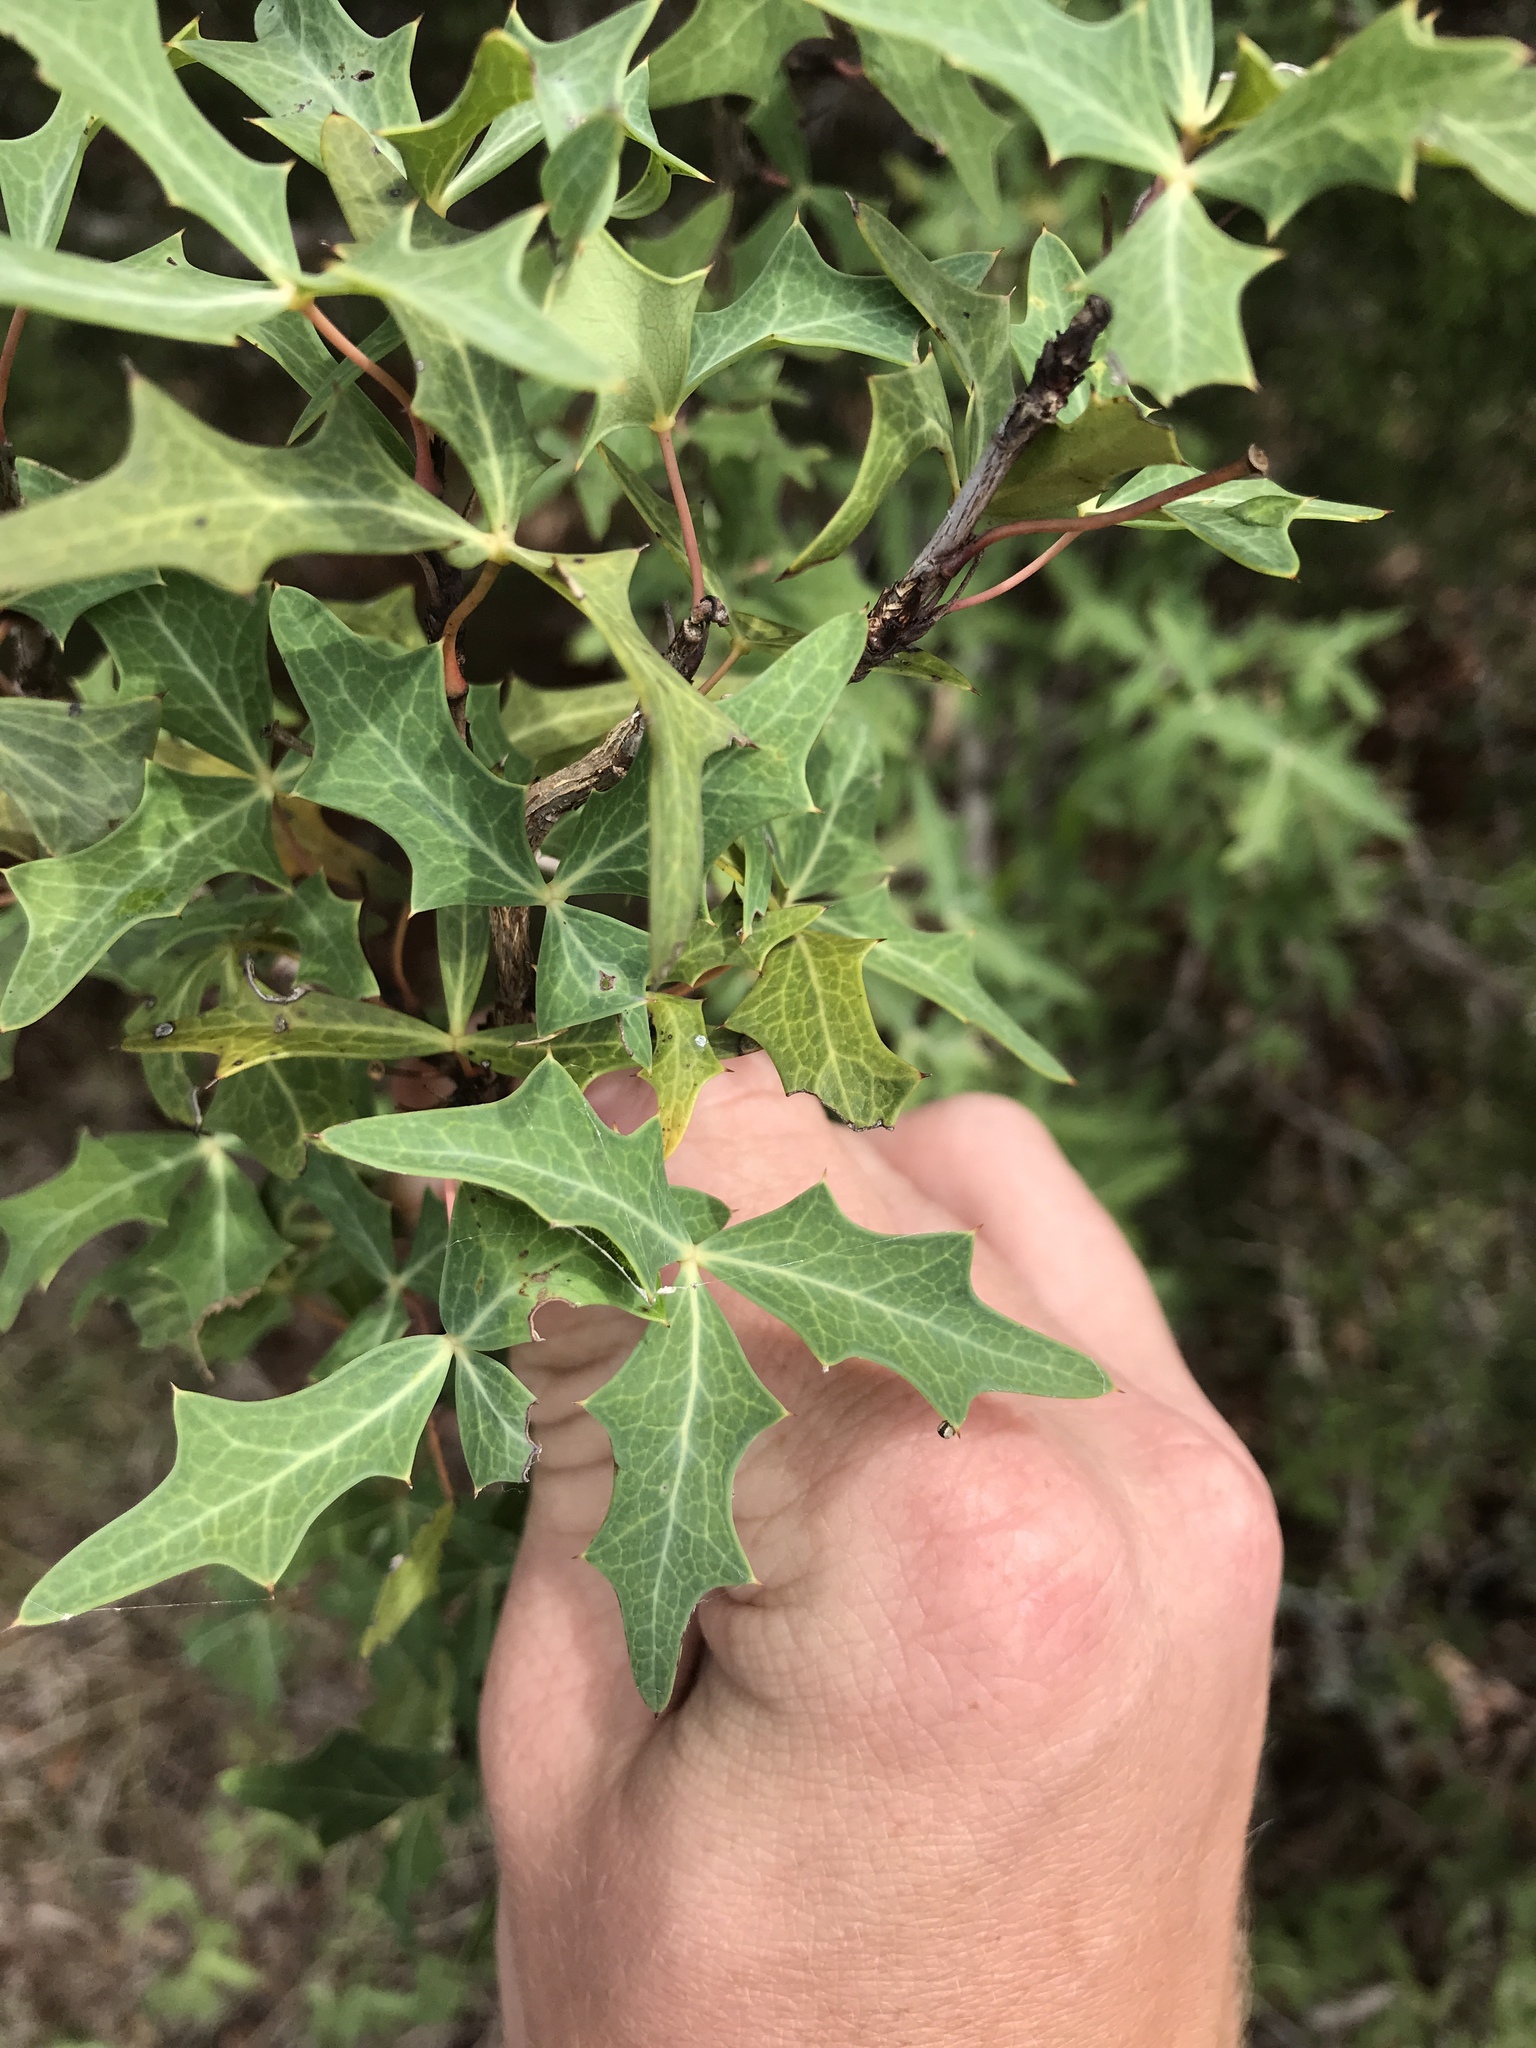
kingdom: Plantae
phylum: Tracheophyta
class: Magnoliopsida
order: Ranunculales
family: Berberidaceae
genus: Alloberberis
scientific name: Alloberberis trifoliolata
